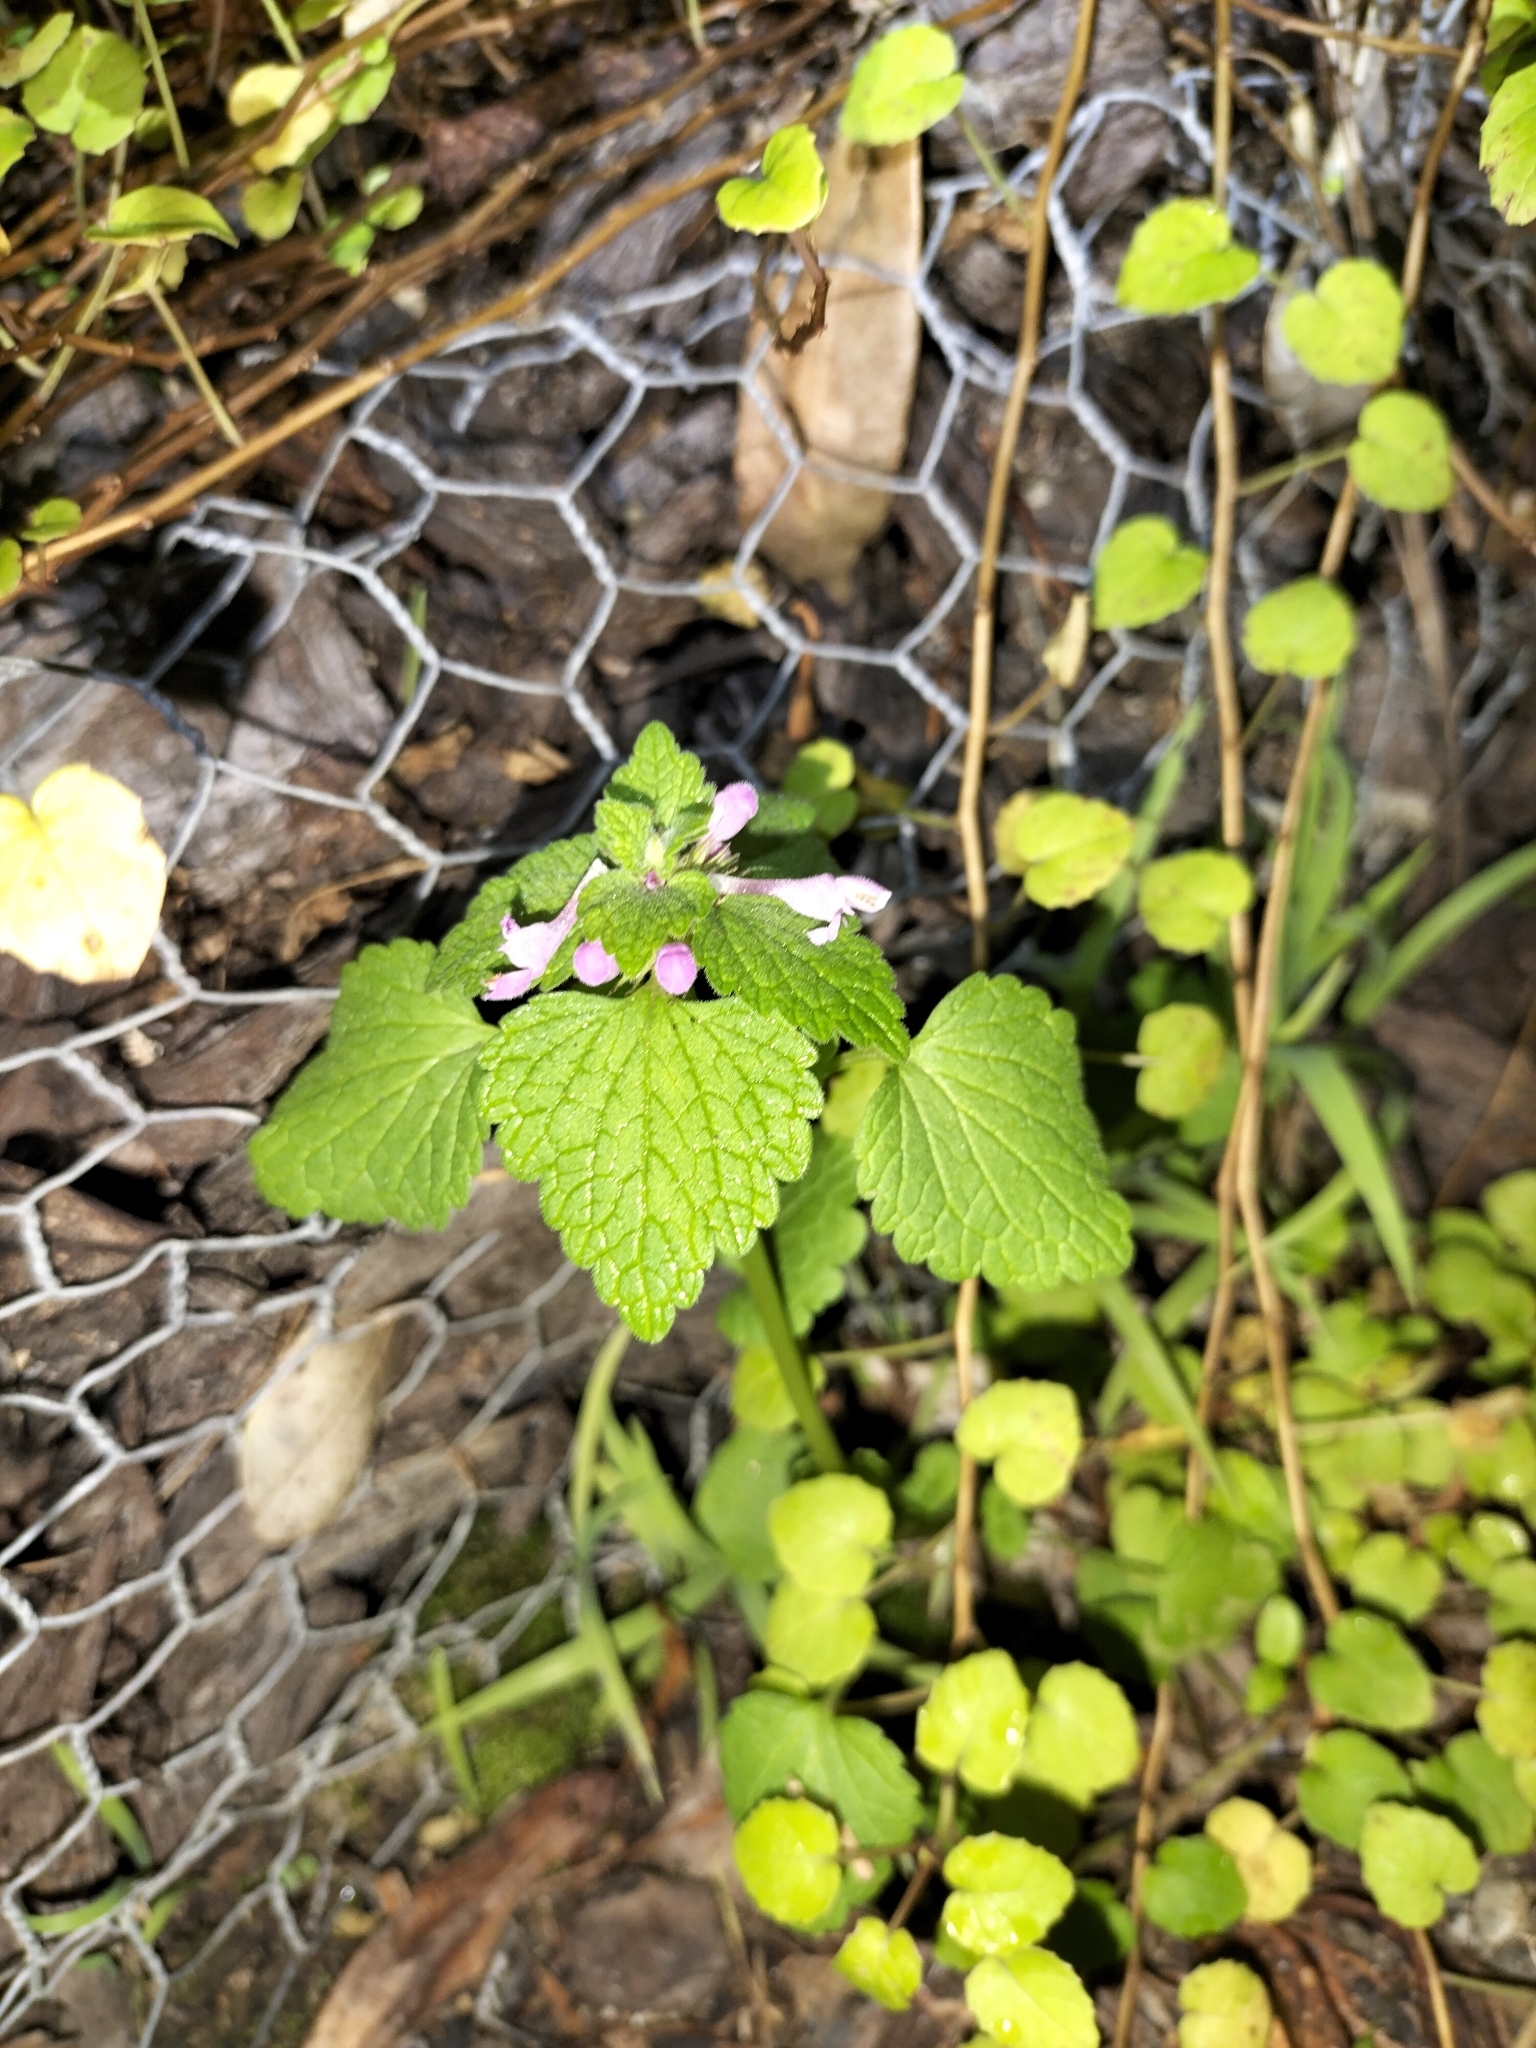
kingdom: Plantae
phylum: Tracheophyta
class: Magnoliopsida
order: Lamiales
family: Lamiaceae
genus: Lamium
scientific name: Lamium purpureum
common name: Red dead-nettle
